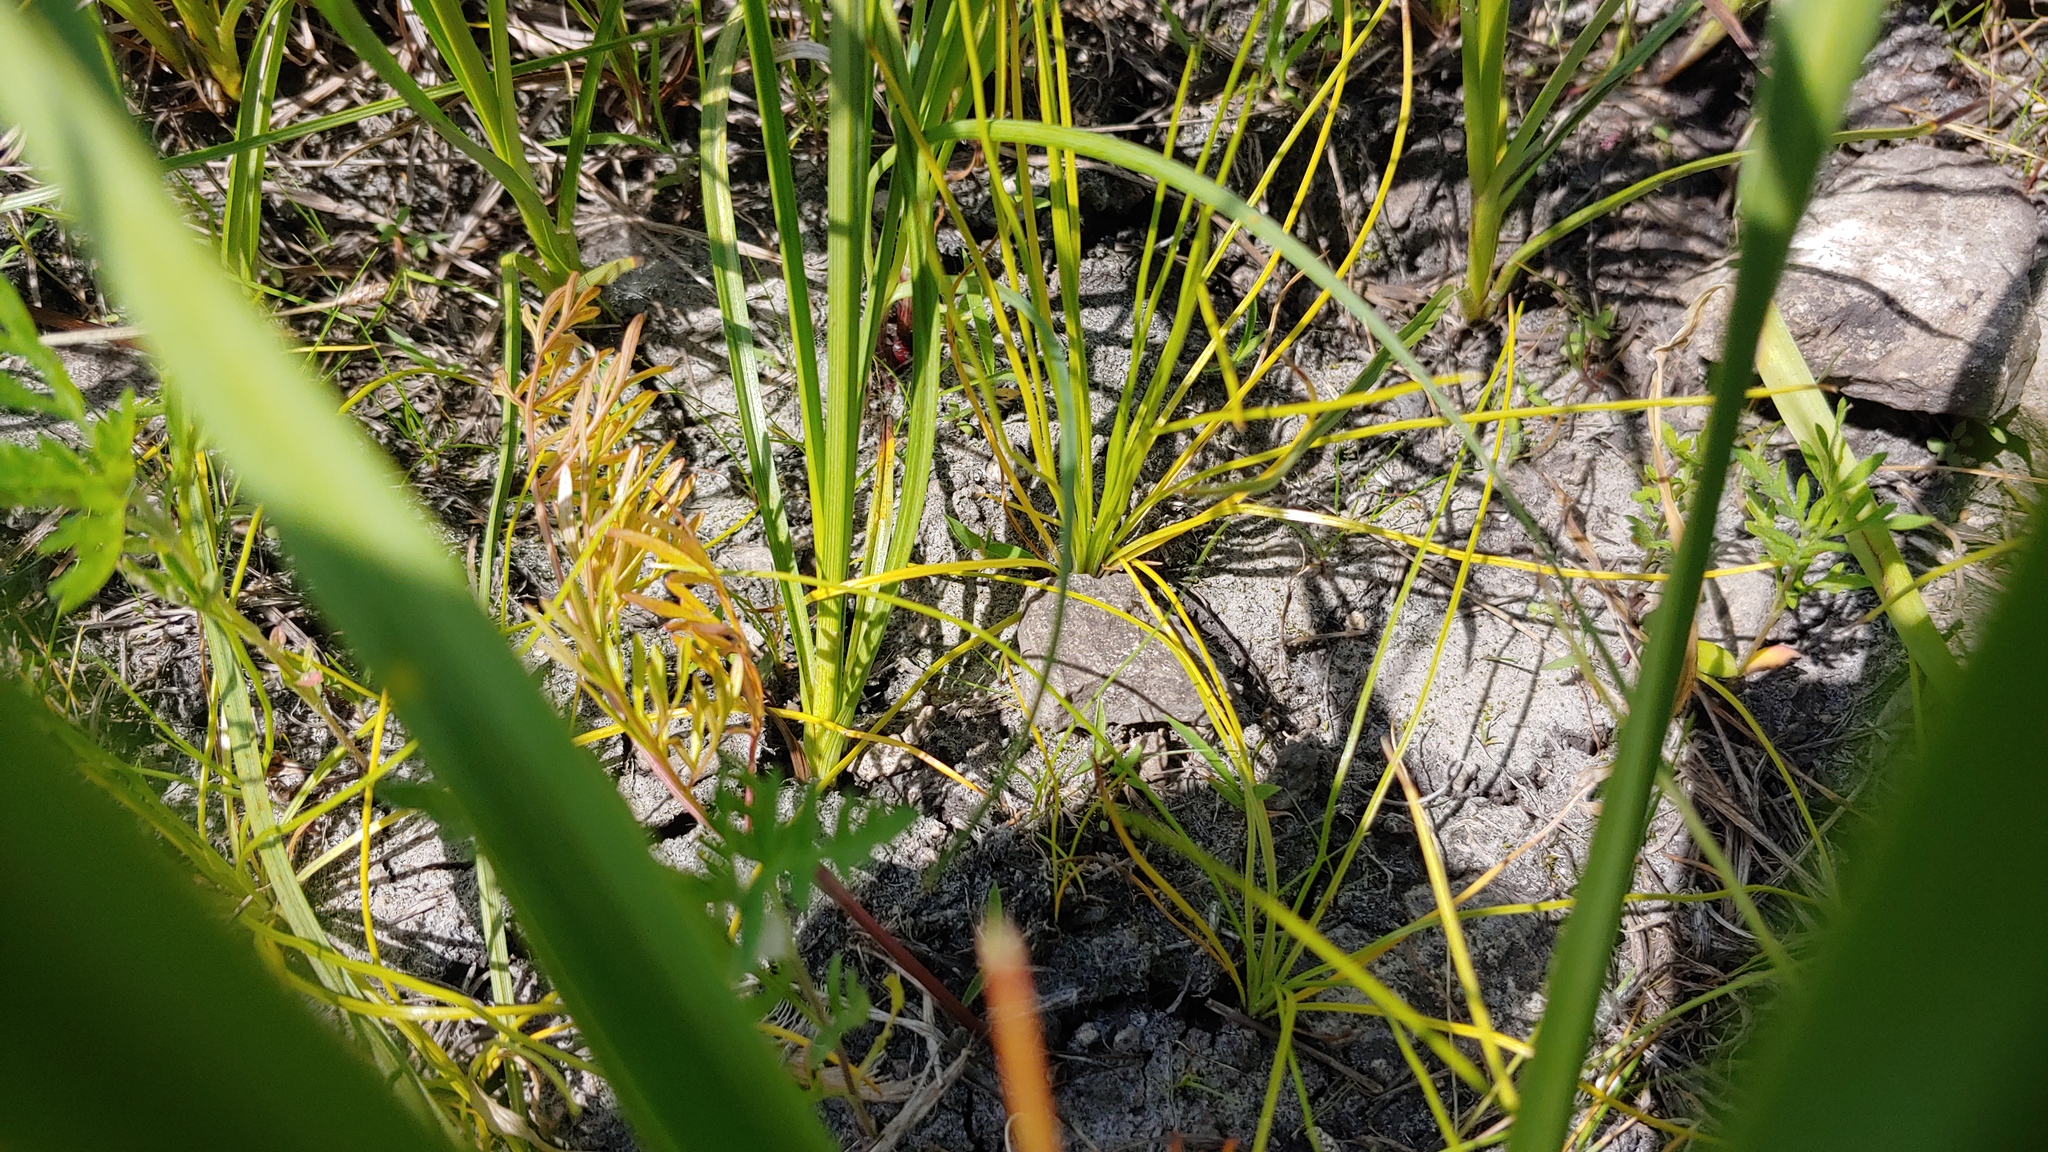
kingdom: Plantae
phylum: Tracheophyta
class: Lycopodiopsida
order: Isoetales
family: Isoetaceae
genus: Isoetes
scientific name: Isoetes butleri
